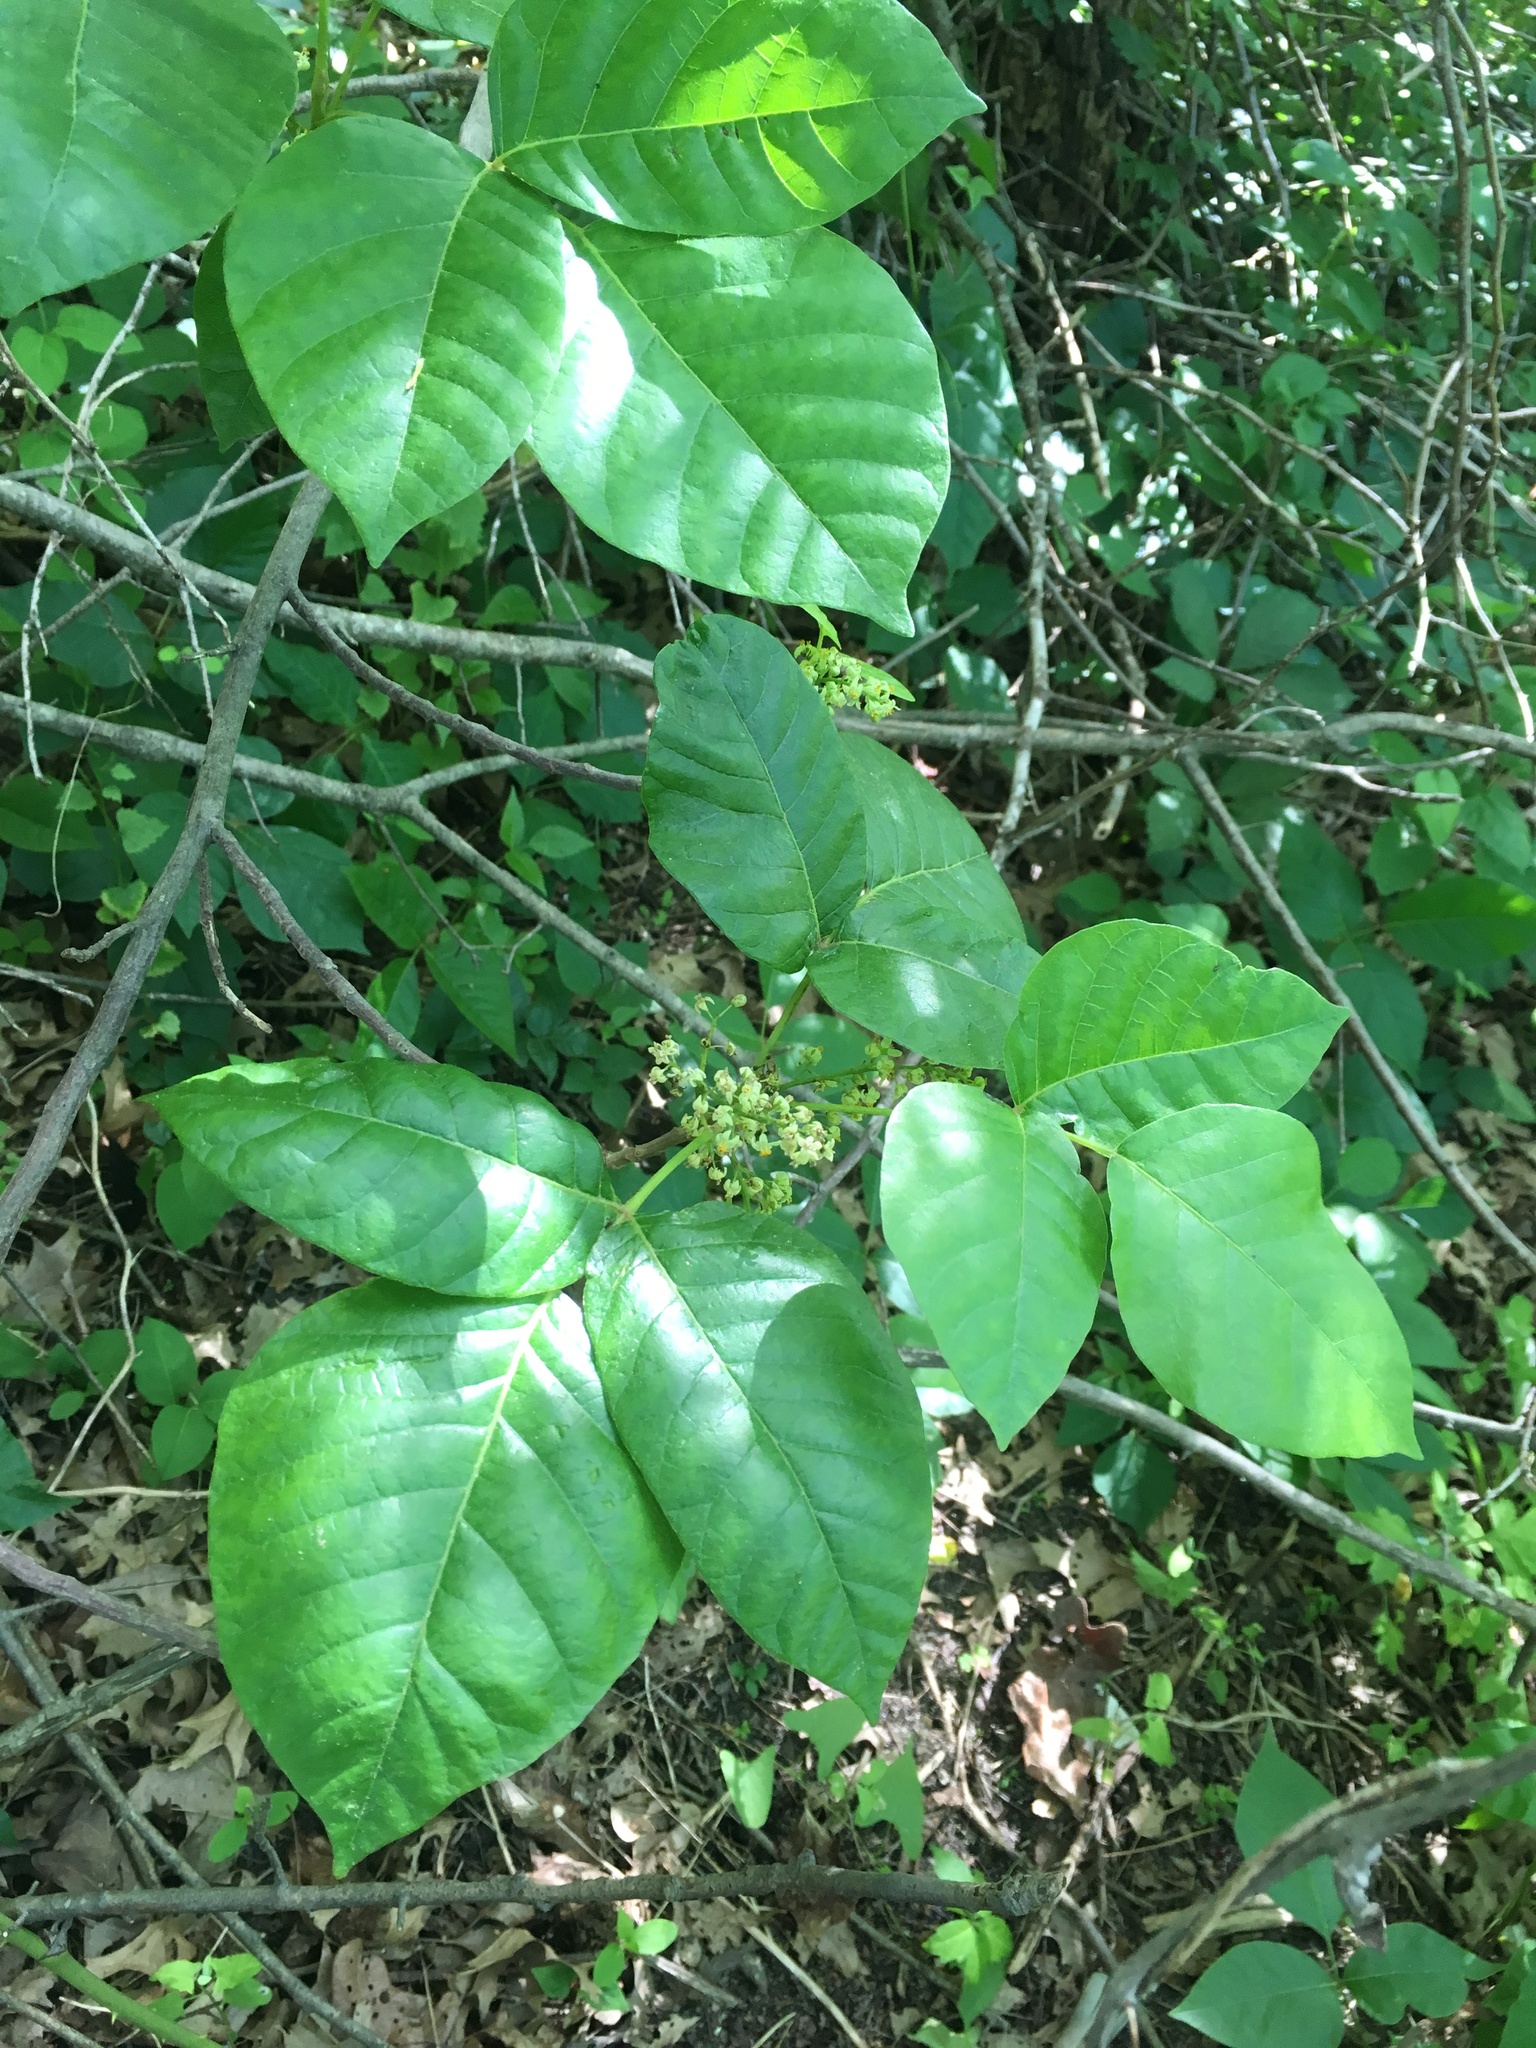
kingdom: Plantae
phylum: Tracheophyta
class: Magnoliopsida
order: Sapindales
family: Anacardiaceae
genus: Toxicodendron
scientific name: Toxicodendron radicans
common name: Poison ivy
